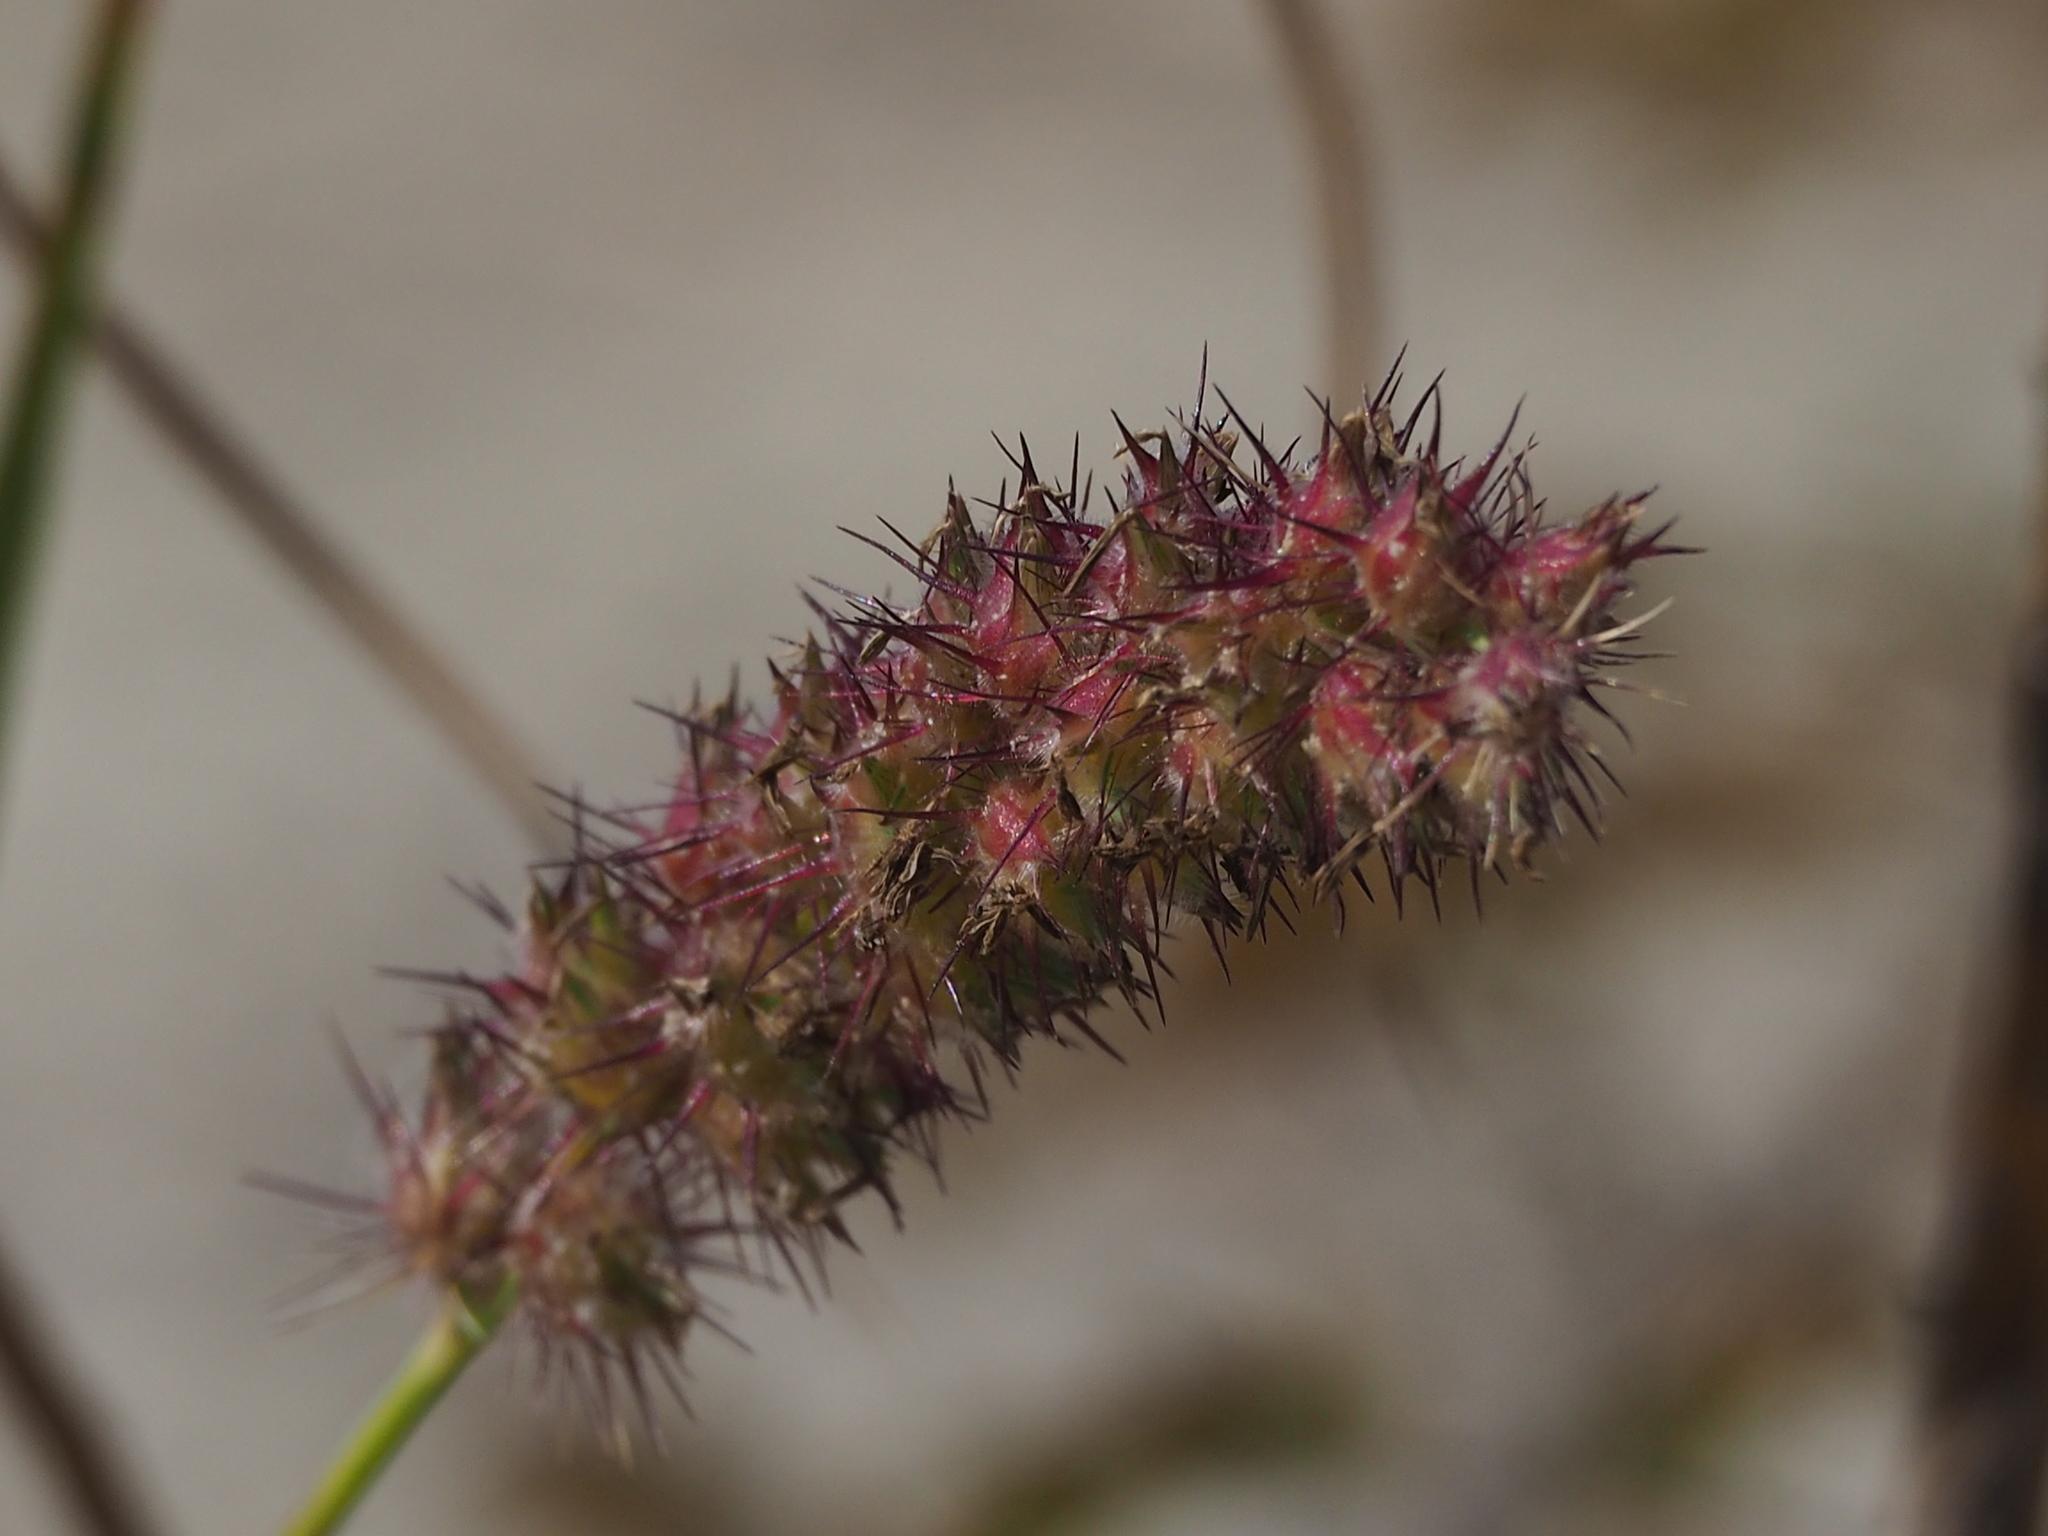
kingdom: Plantae
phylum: Tracheophyta
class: Liliopsida
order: Poales
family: Poaceae
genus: Cenchrus
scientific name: Cenchrus echinatus
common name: Southern sandbur
